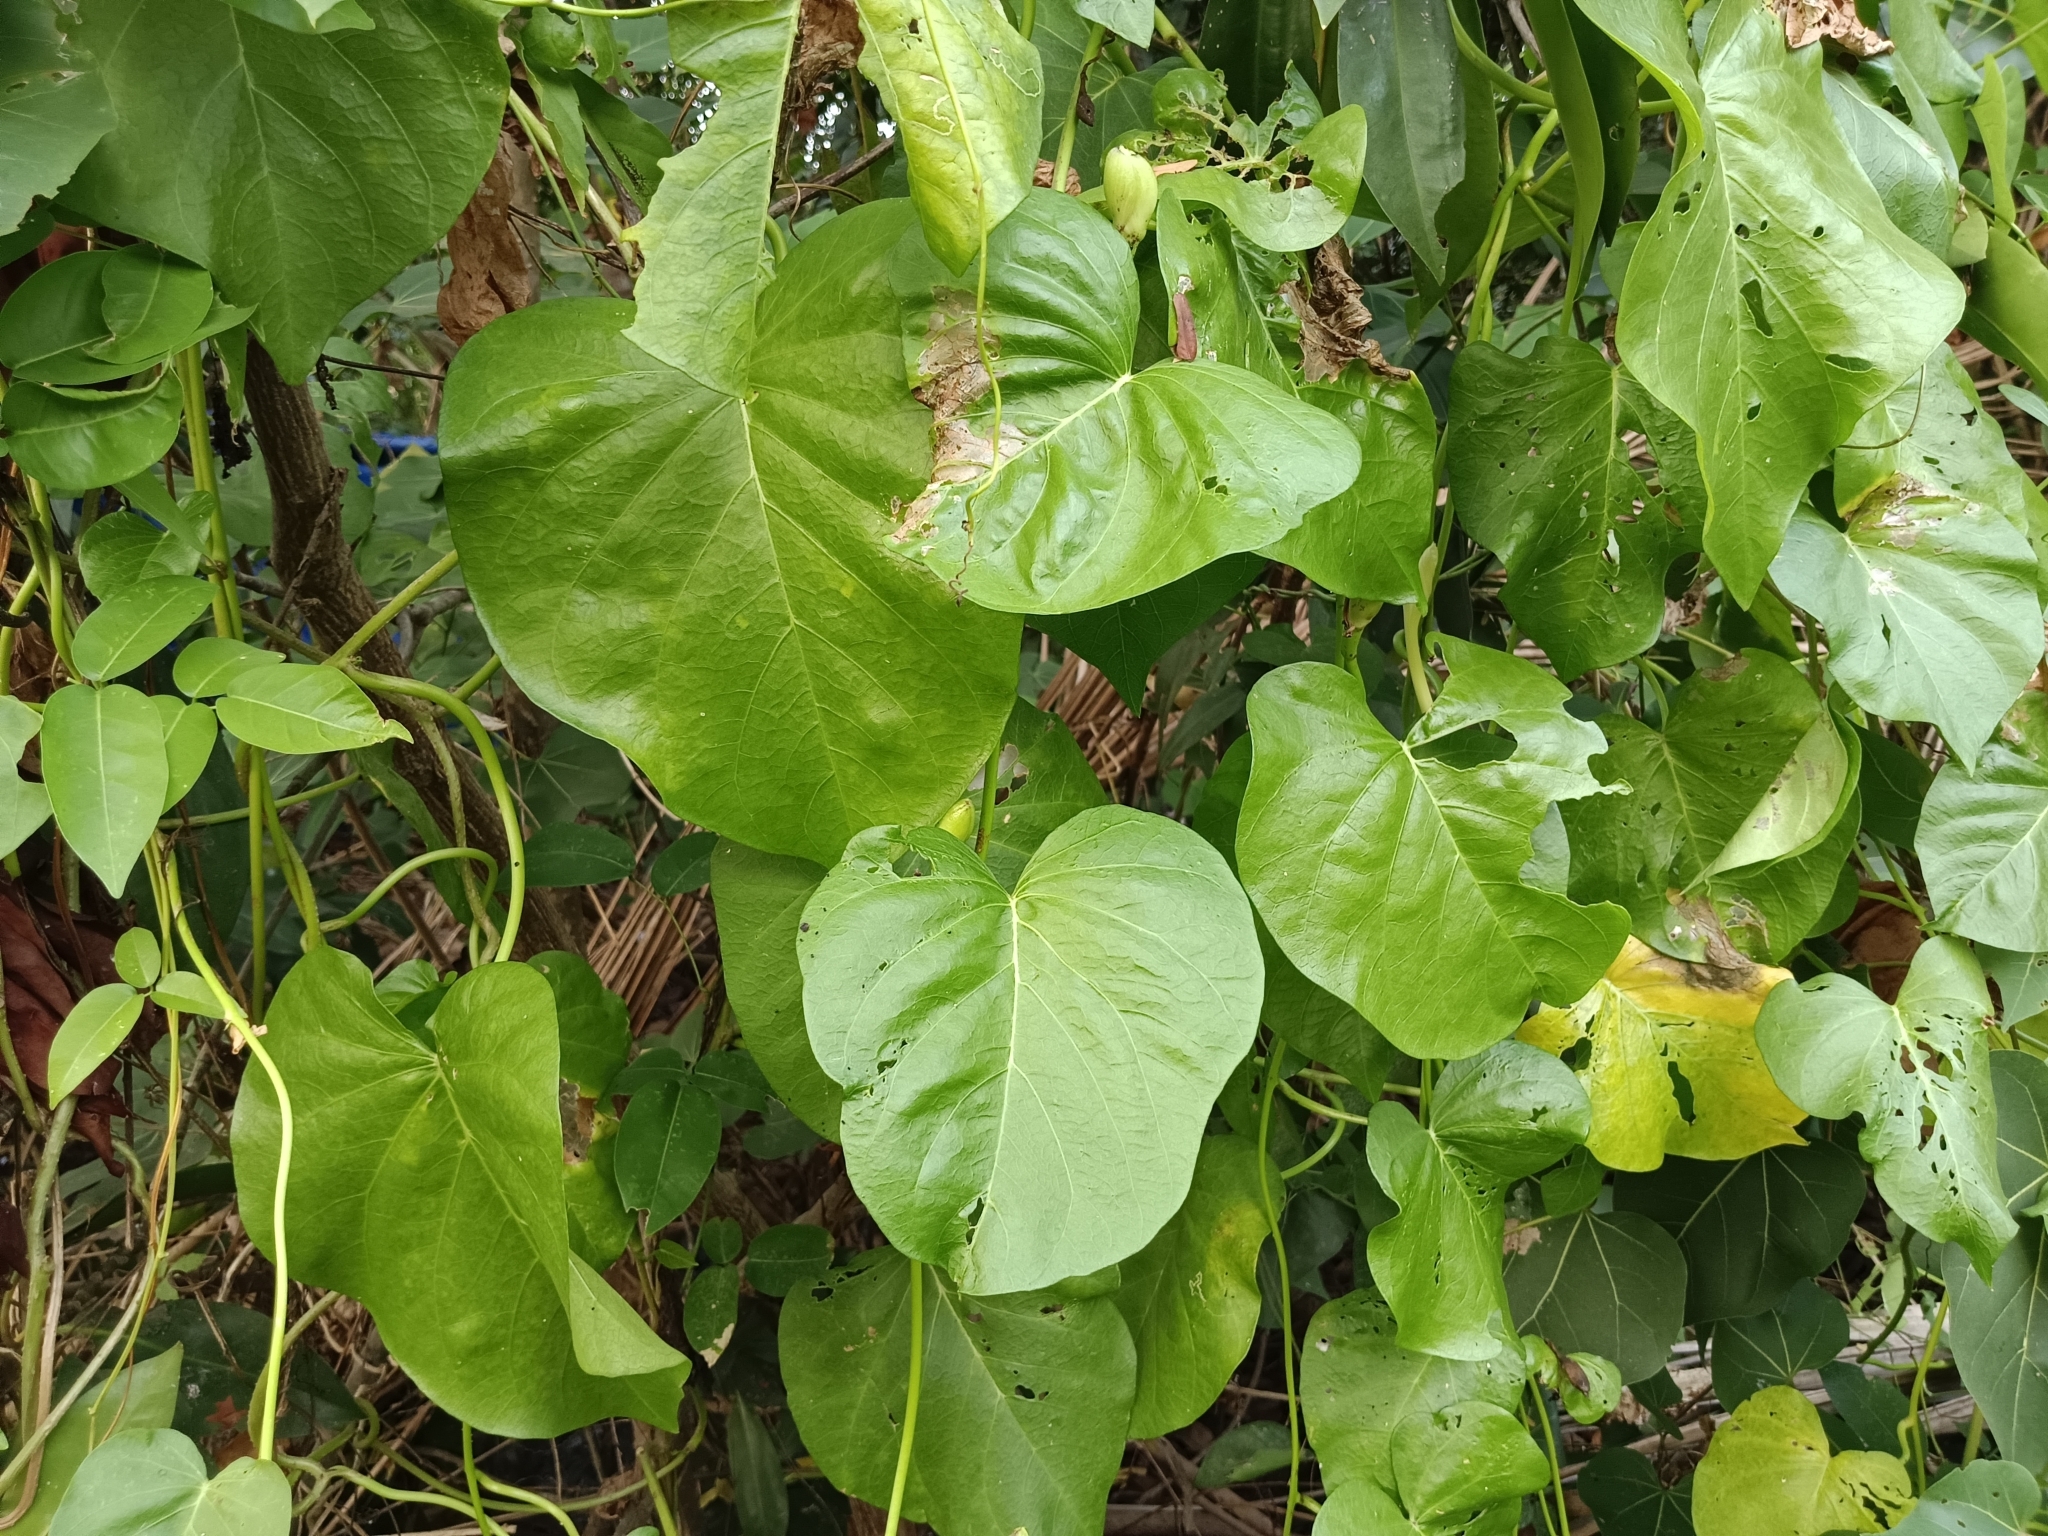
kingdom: Plantae
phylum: Tracheophyta
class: Magnoliopsida
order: Solanales
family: Convolvulaceae
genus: Ipomoea
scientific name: Ipomoea violacea
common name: Beach moonflower
